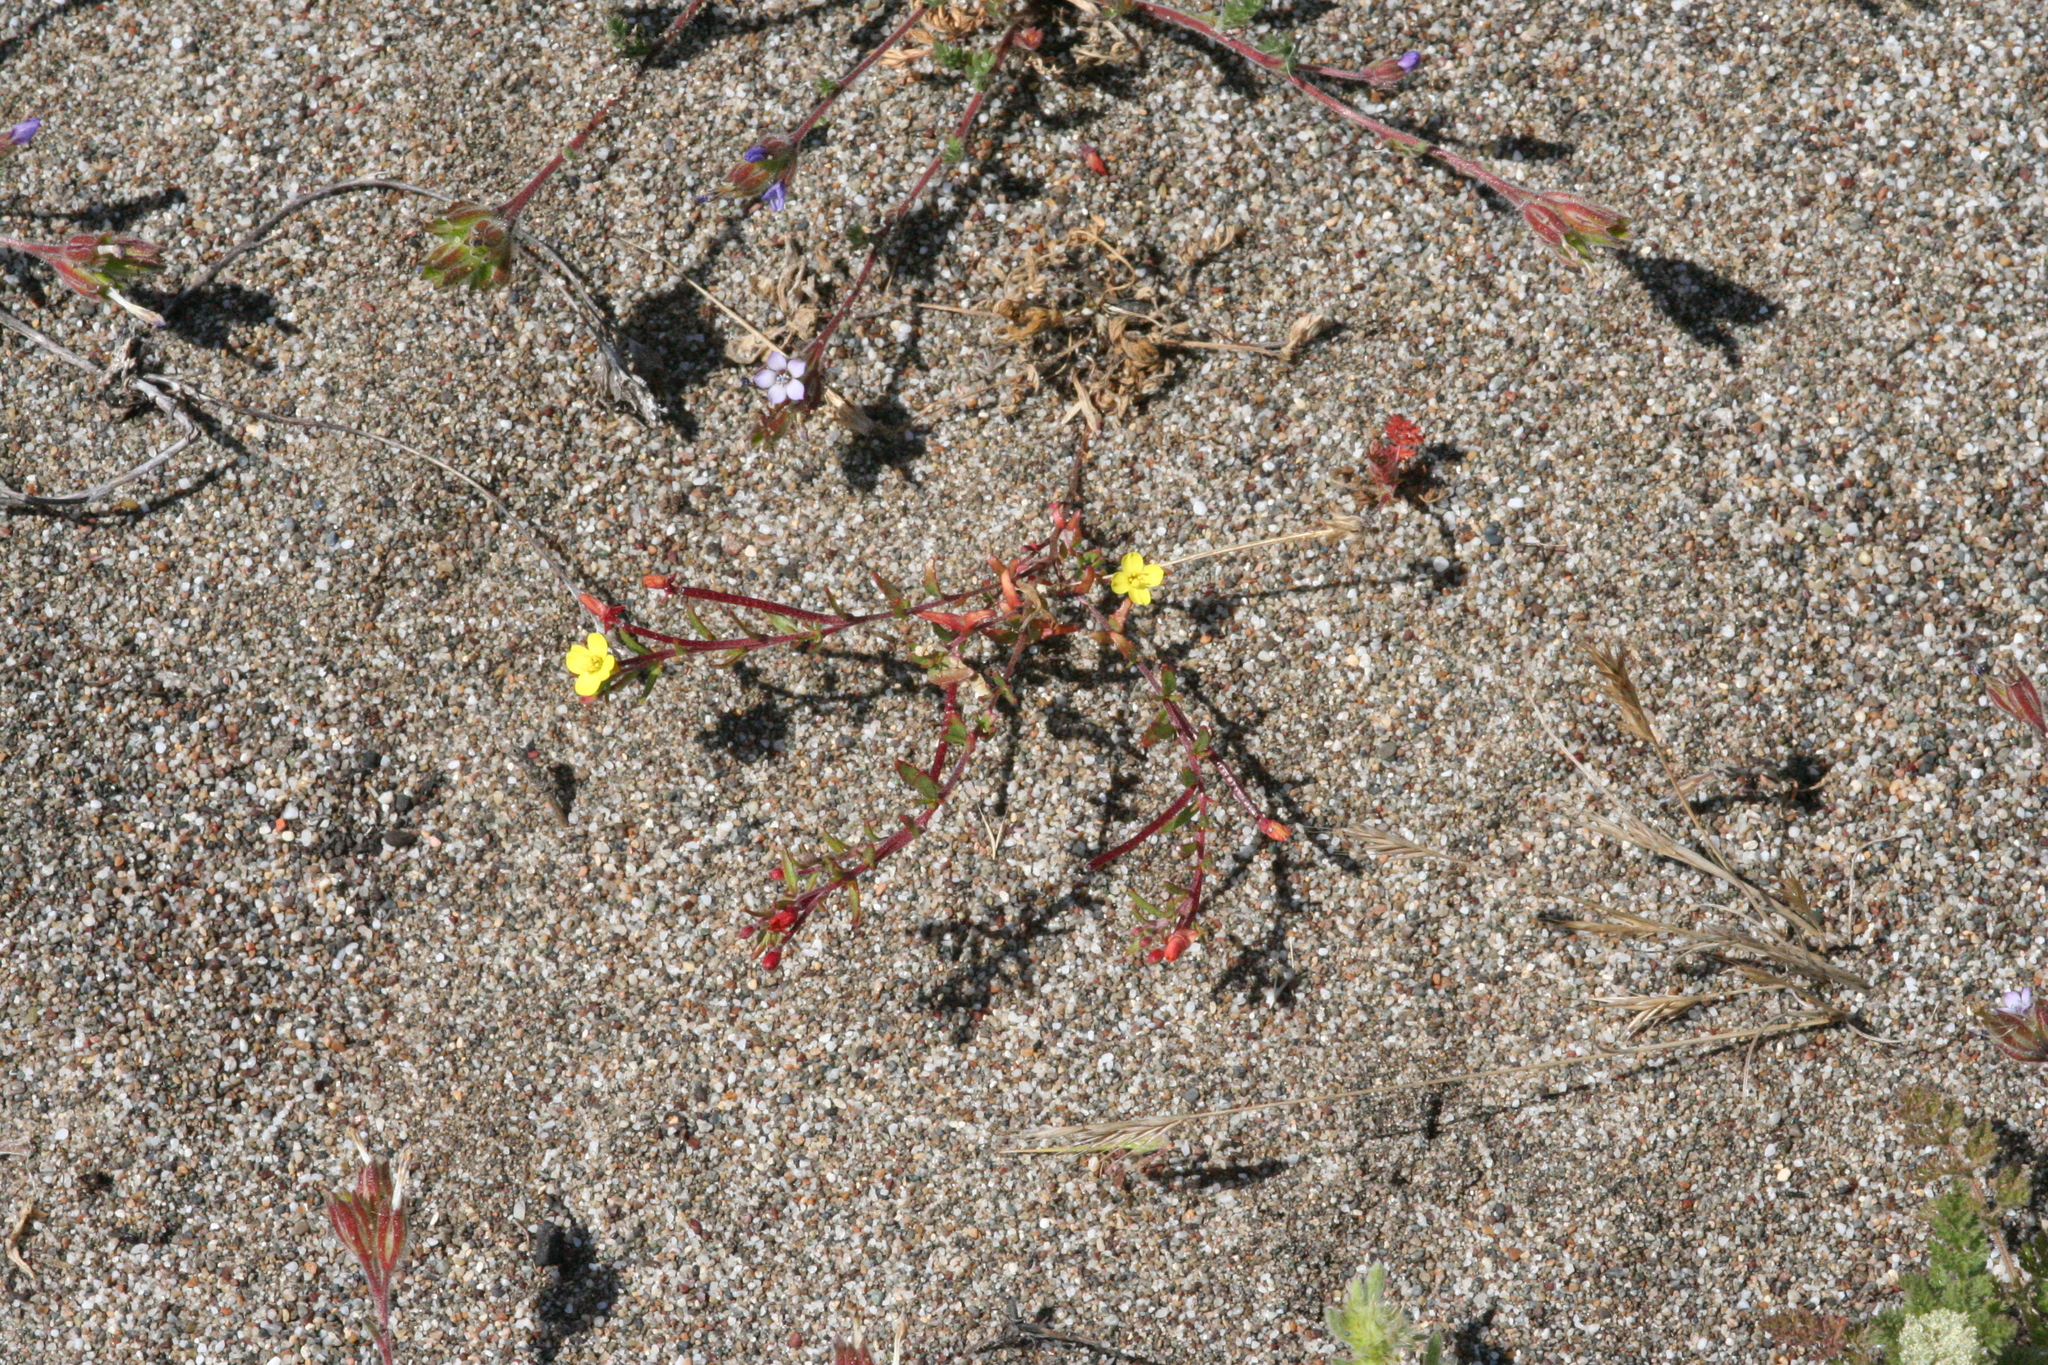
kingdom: Plantae
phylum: Tracheophyta
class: Magnoliopsida
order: Myrtales
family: Onagraceae
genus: Camissonia
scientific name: Camissonia strigulosa
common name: Contorted-primrose
